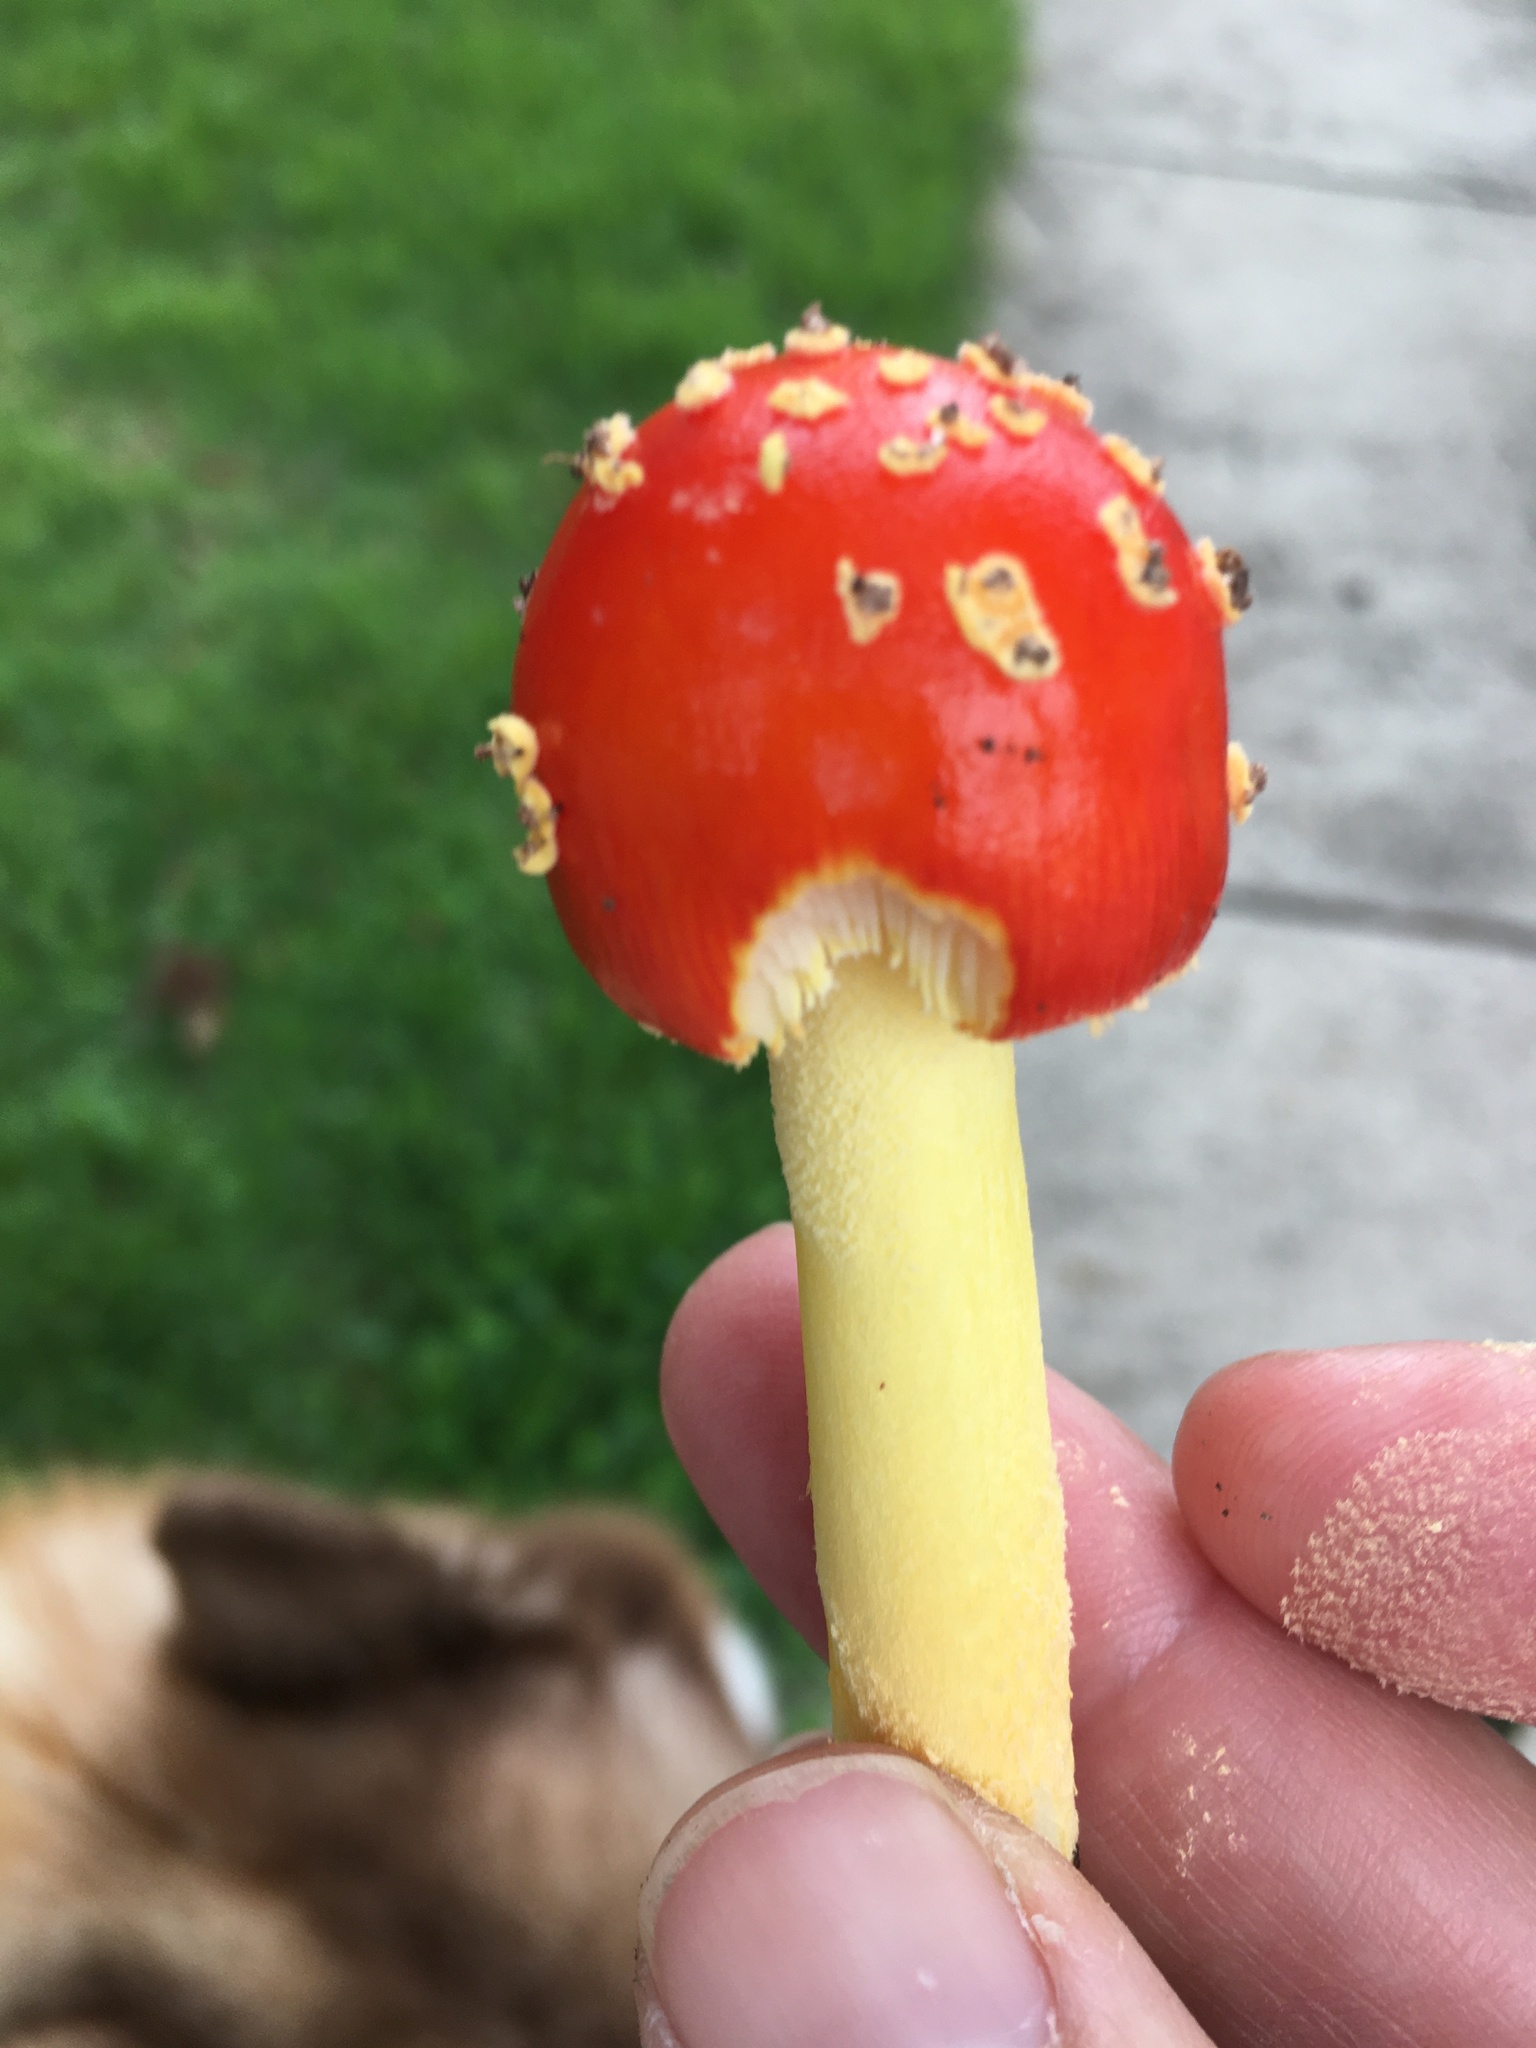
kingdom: Fungi
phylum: Basidiomycota
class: Agaricomycetes
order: Agaricales
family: Amanitaceae
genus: Amanita
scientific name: Amanita parcivolvata
